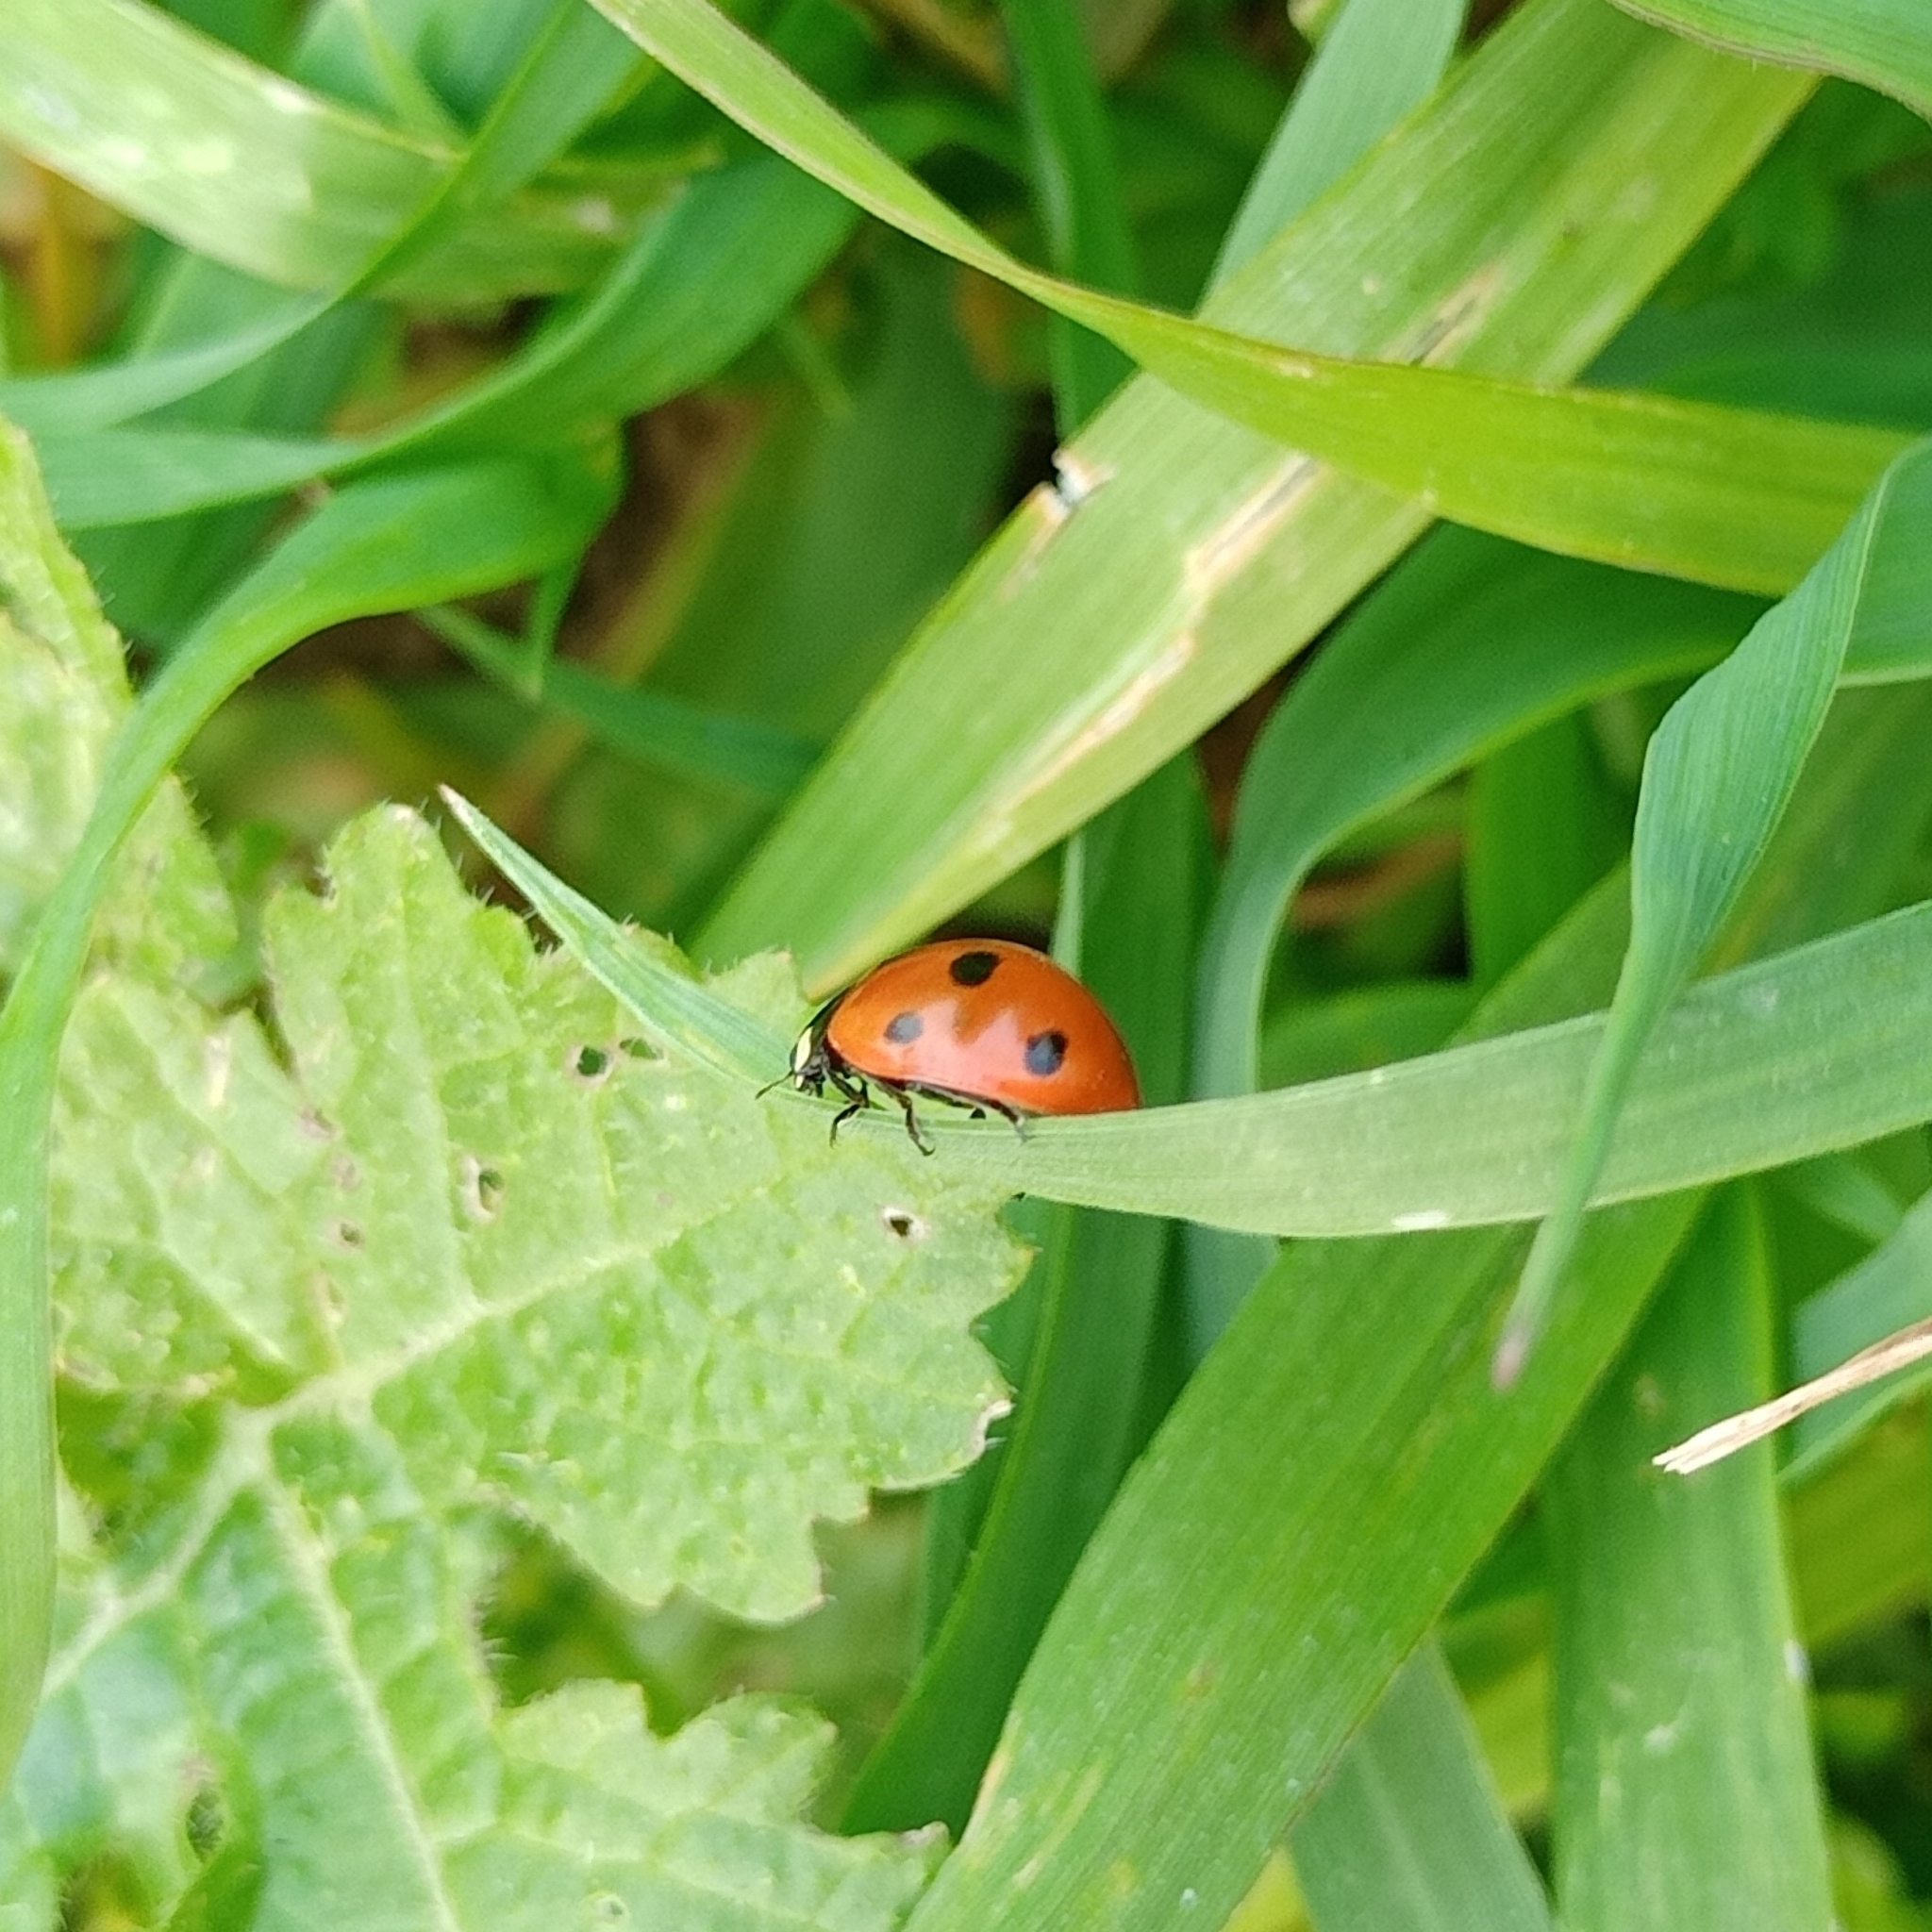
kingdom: Animalia
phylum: Arthropoda
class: Insecta
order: Coleoptera
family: Coccinellidae
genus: Coccinella
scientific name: Coccinella septempunctata
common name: Sevenspotted lady beetle
